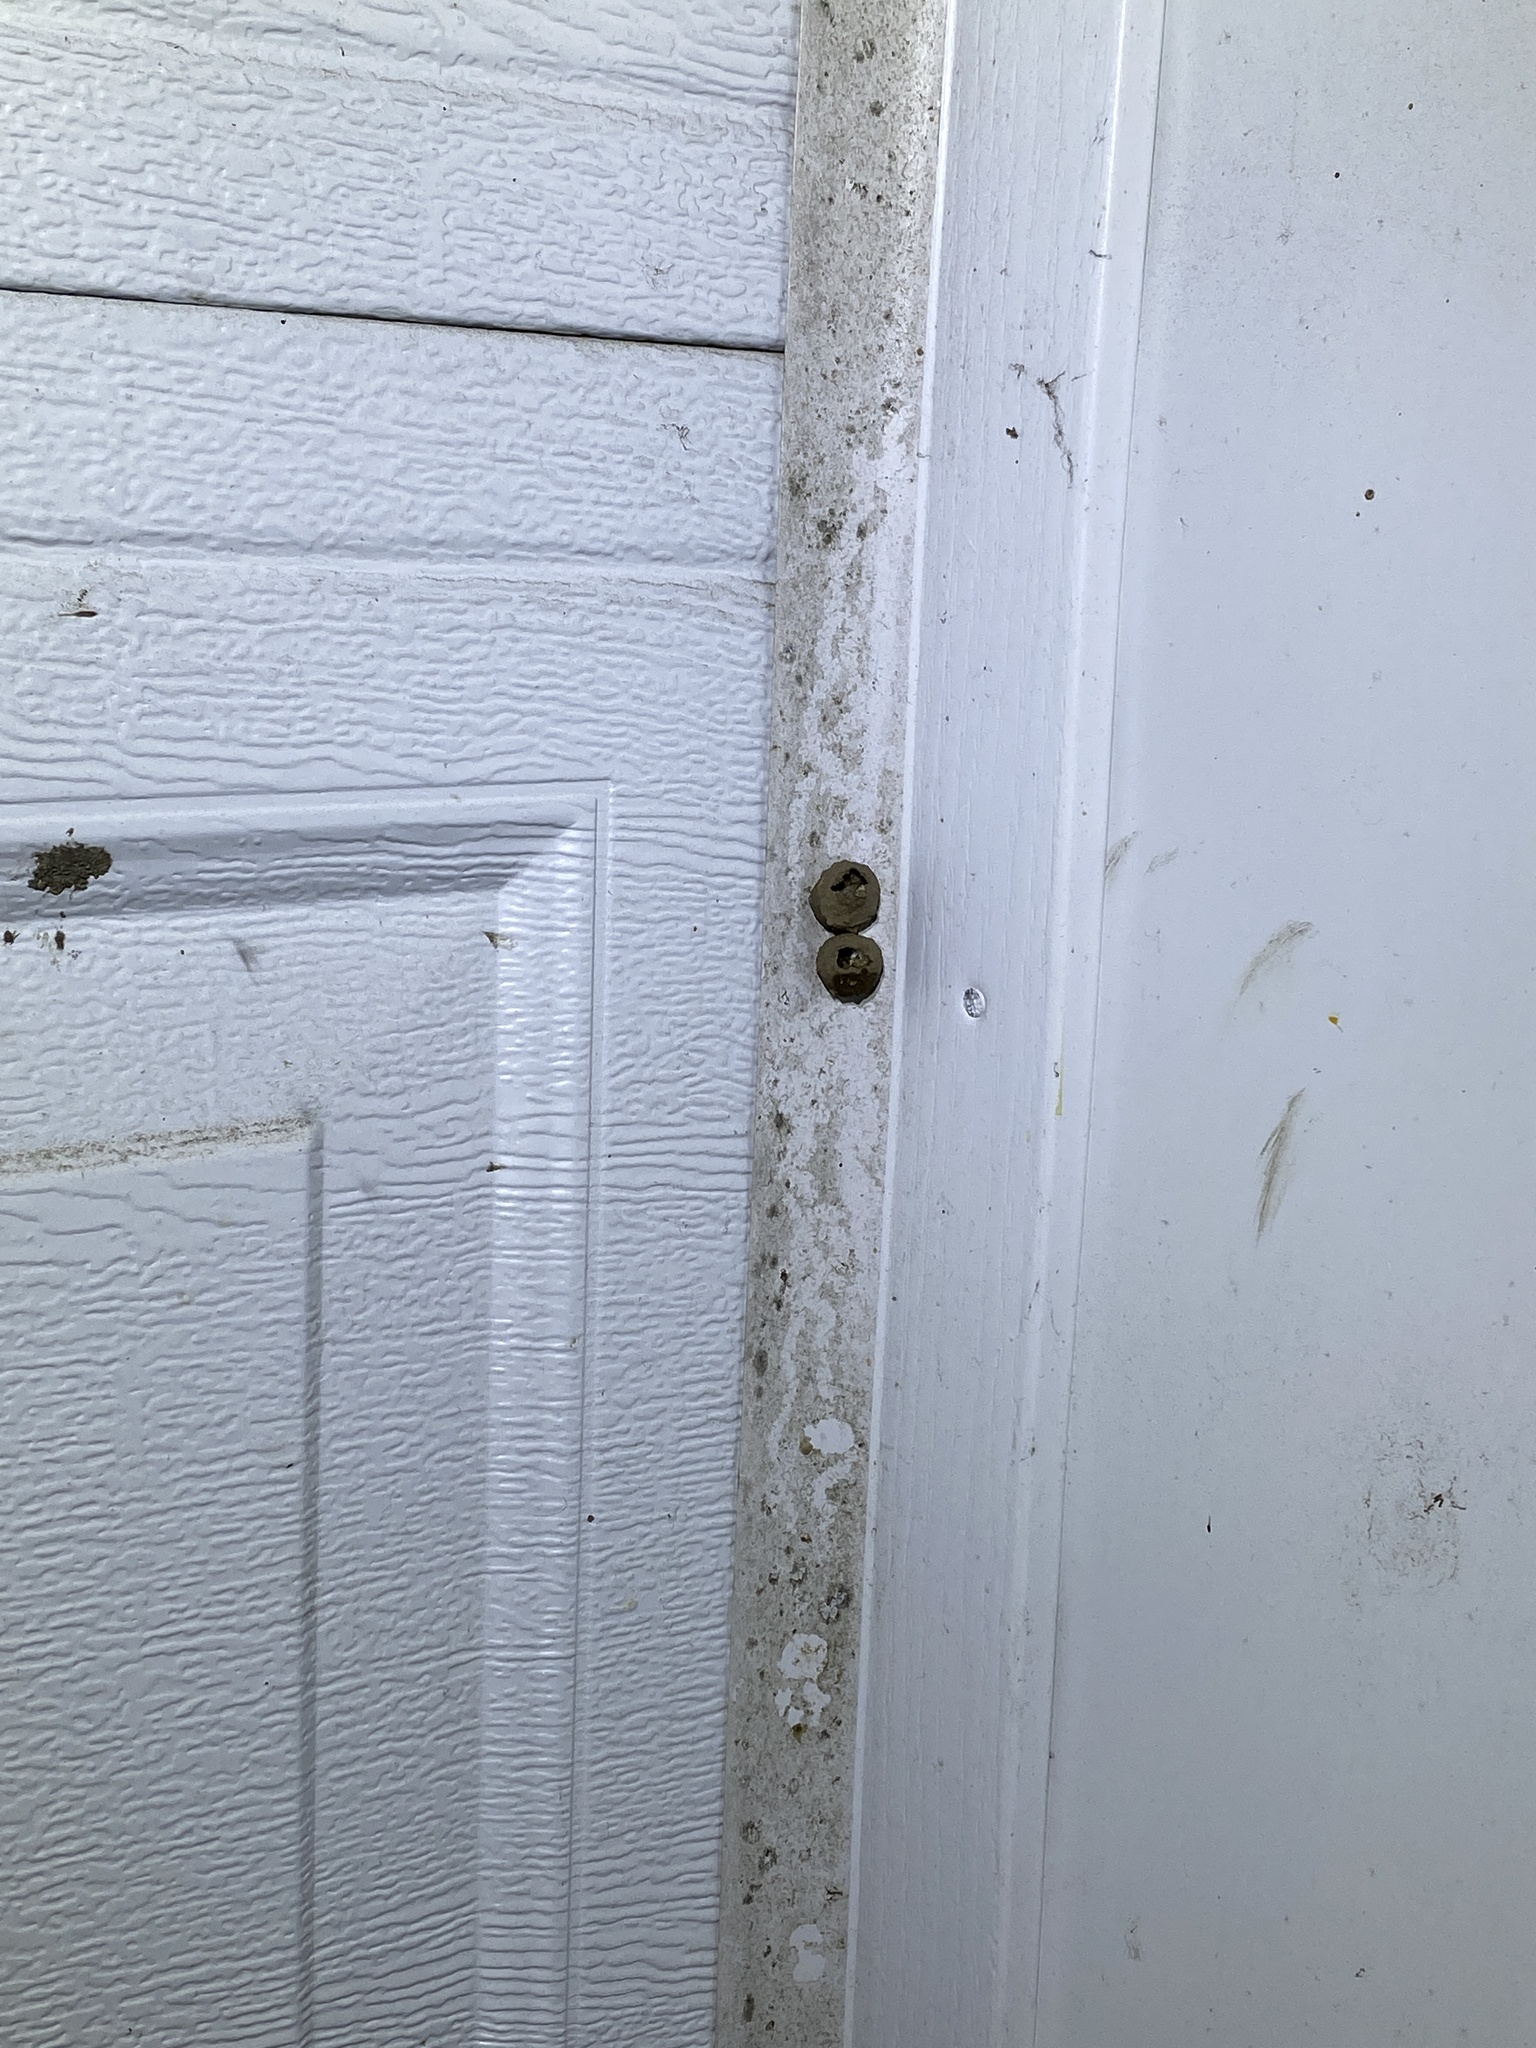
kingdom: Animalia
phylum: Arthropoda
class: Insecta
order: Hymenoptera
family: Vespidae
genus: Eumenes
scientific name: Eumenes
